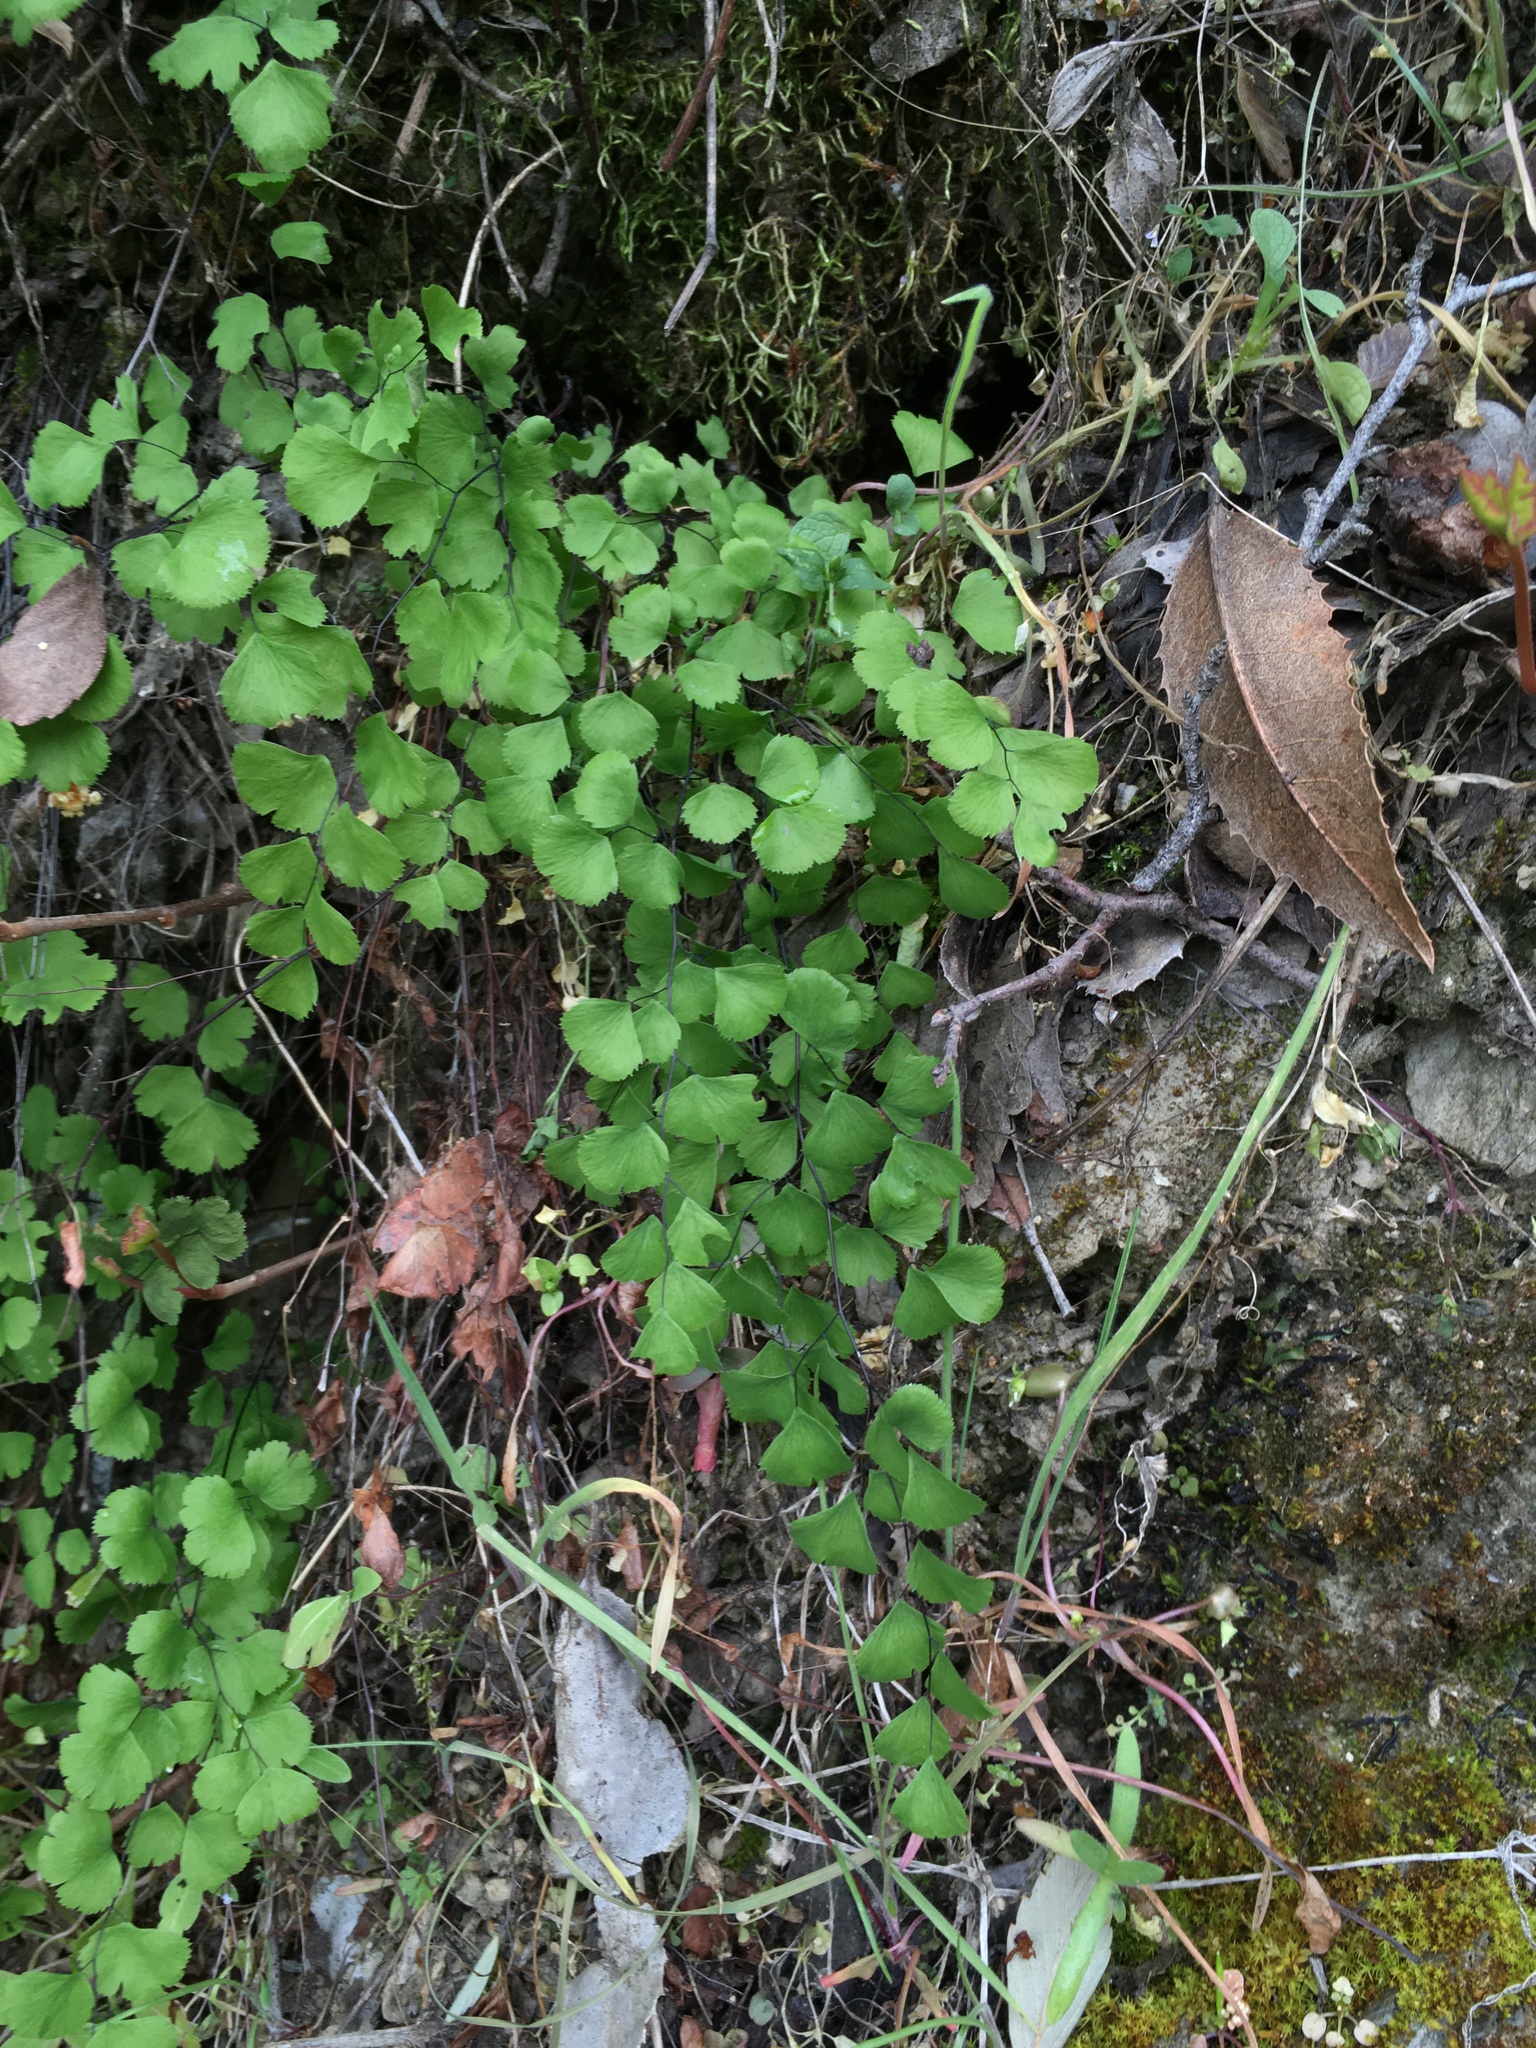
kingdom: Plantae
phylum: Tracheophyta
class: Polypodiopsida
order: Polypodiales
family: Pteridaceae
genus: Adiantum
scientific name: Adiantum jordanii
